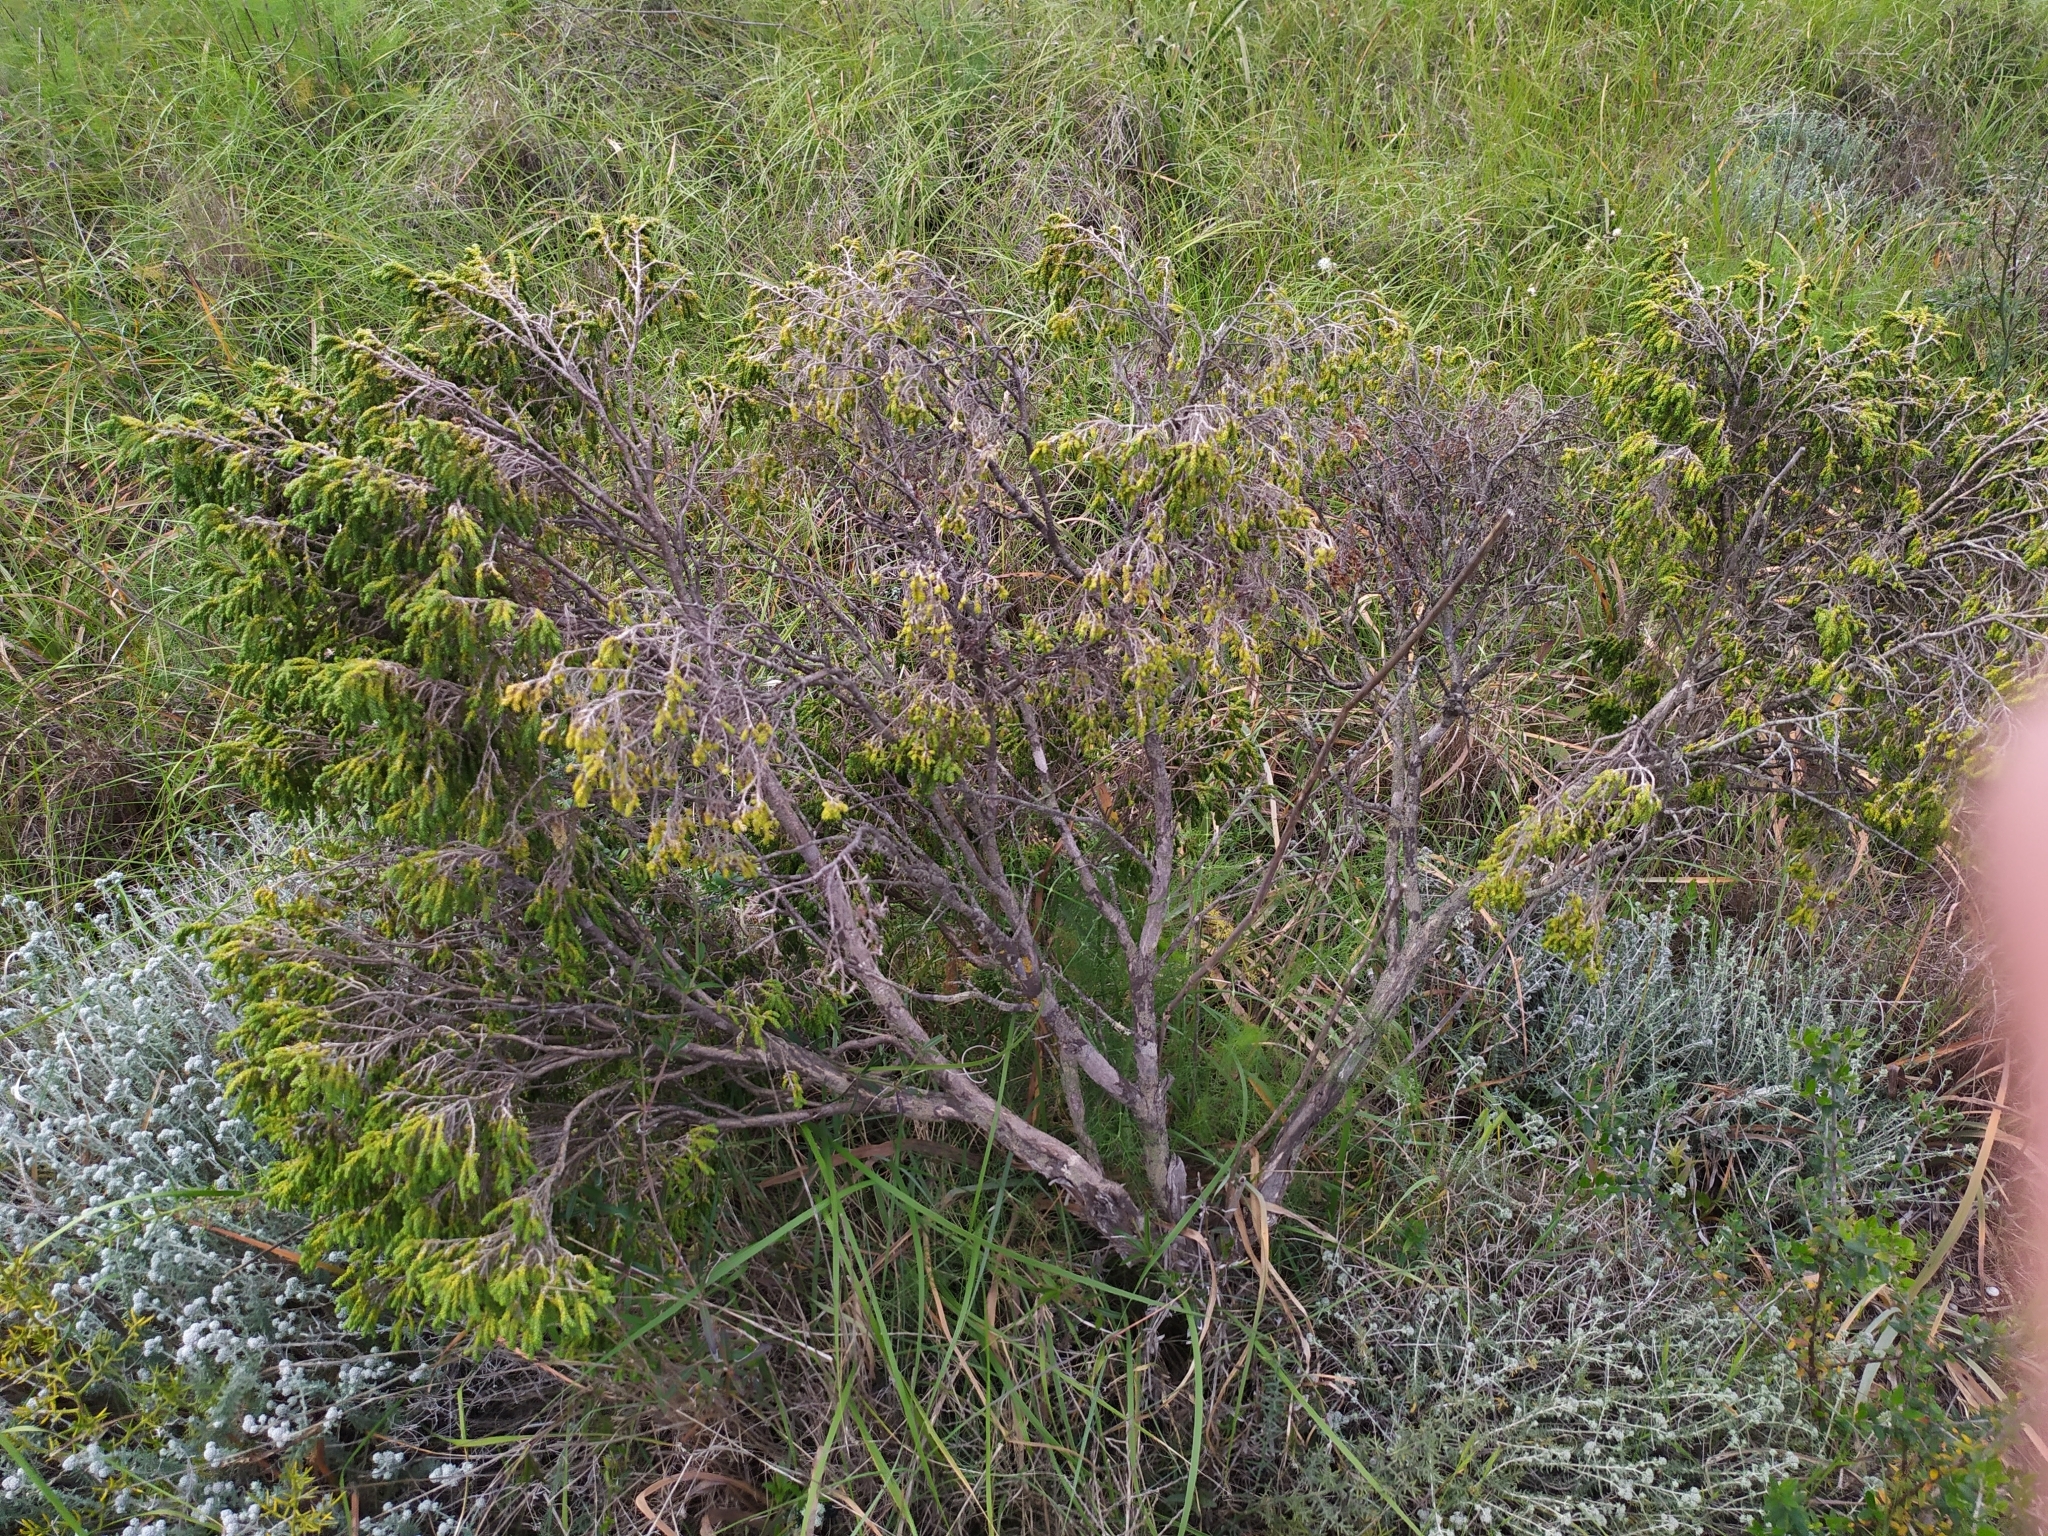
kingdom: Plantae
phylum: Tracheophyta
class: Magnoliopsida
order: Malvales
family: Thymelaeaceae
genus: Thymelaea
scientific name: Thymelaea hirsuta
